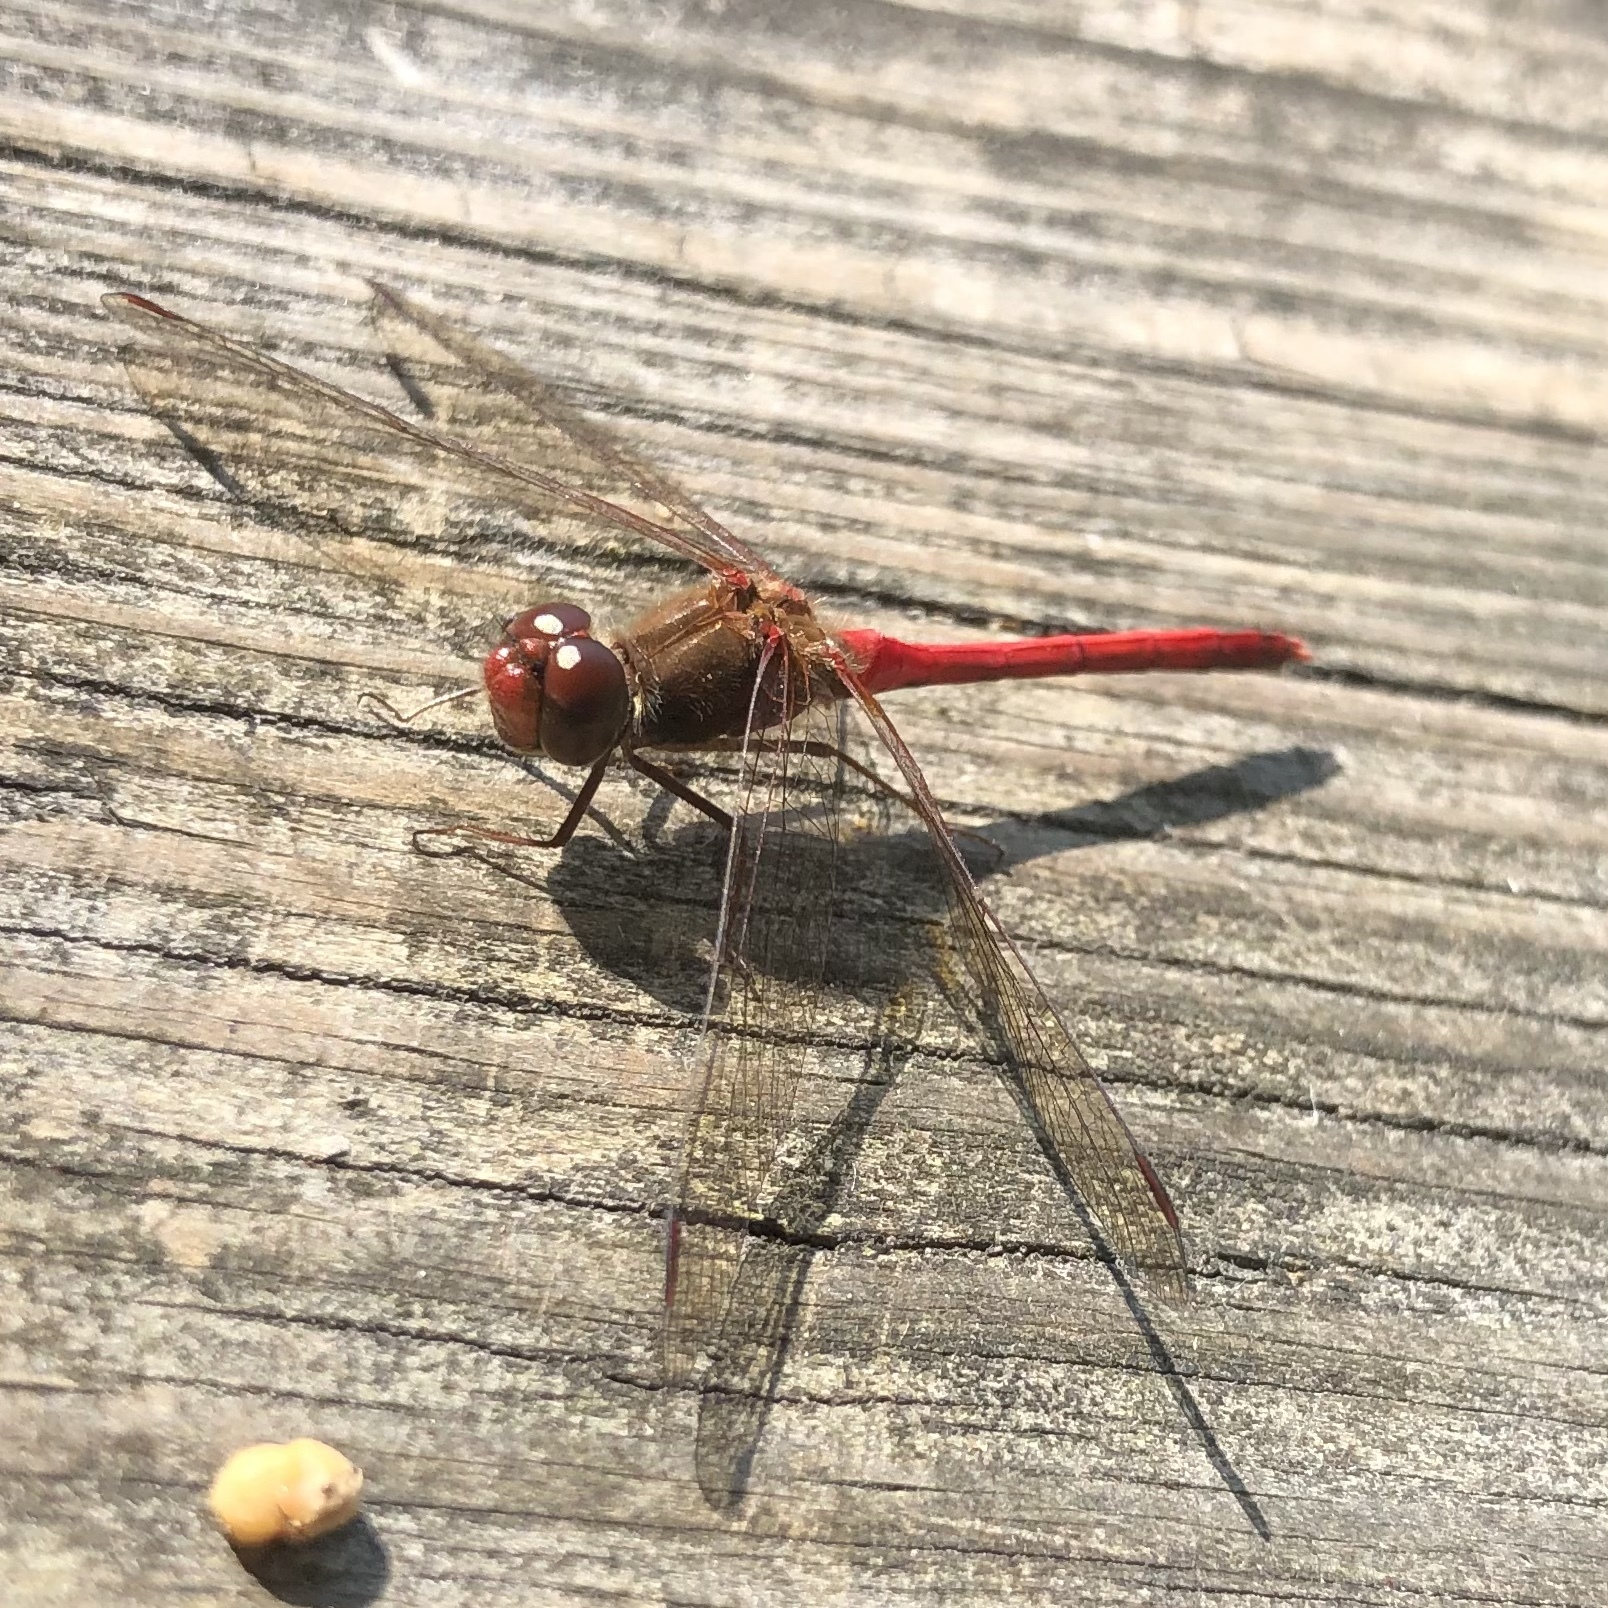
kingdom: Animalia
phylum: Arthropoda
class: Insecta
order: Odonata
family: Libellulidae
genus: Sympetrum
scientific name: Sympetrum vicinum
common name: Autumn meadowhawk
